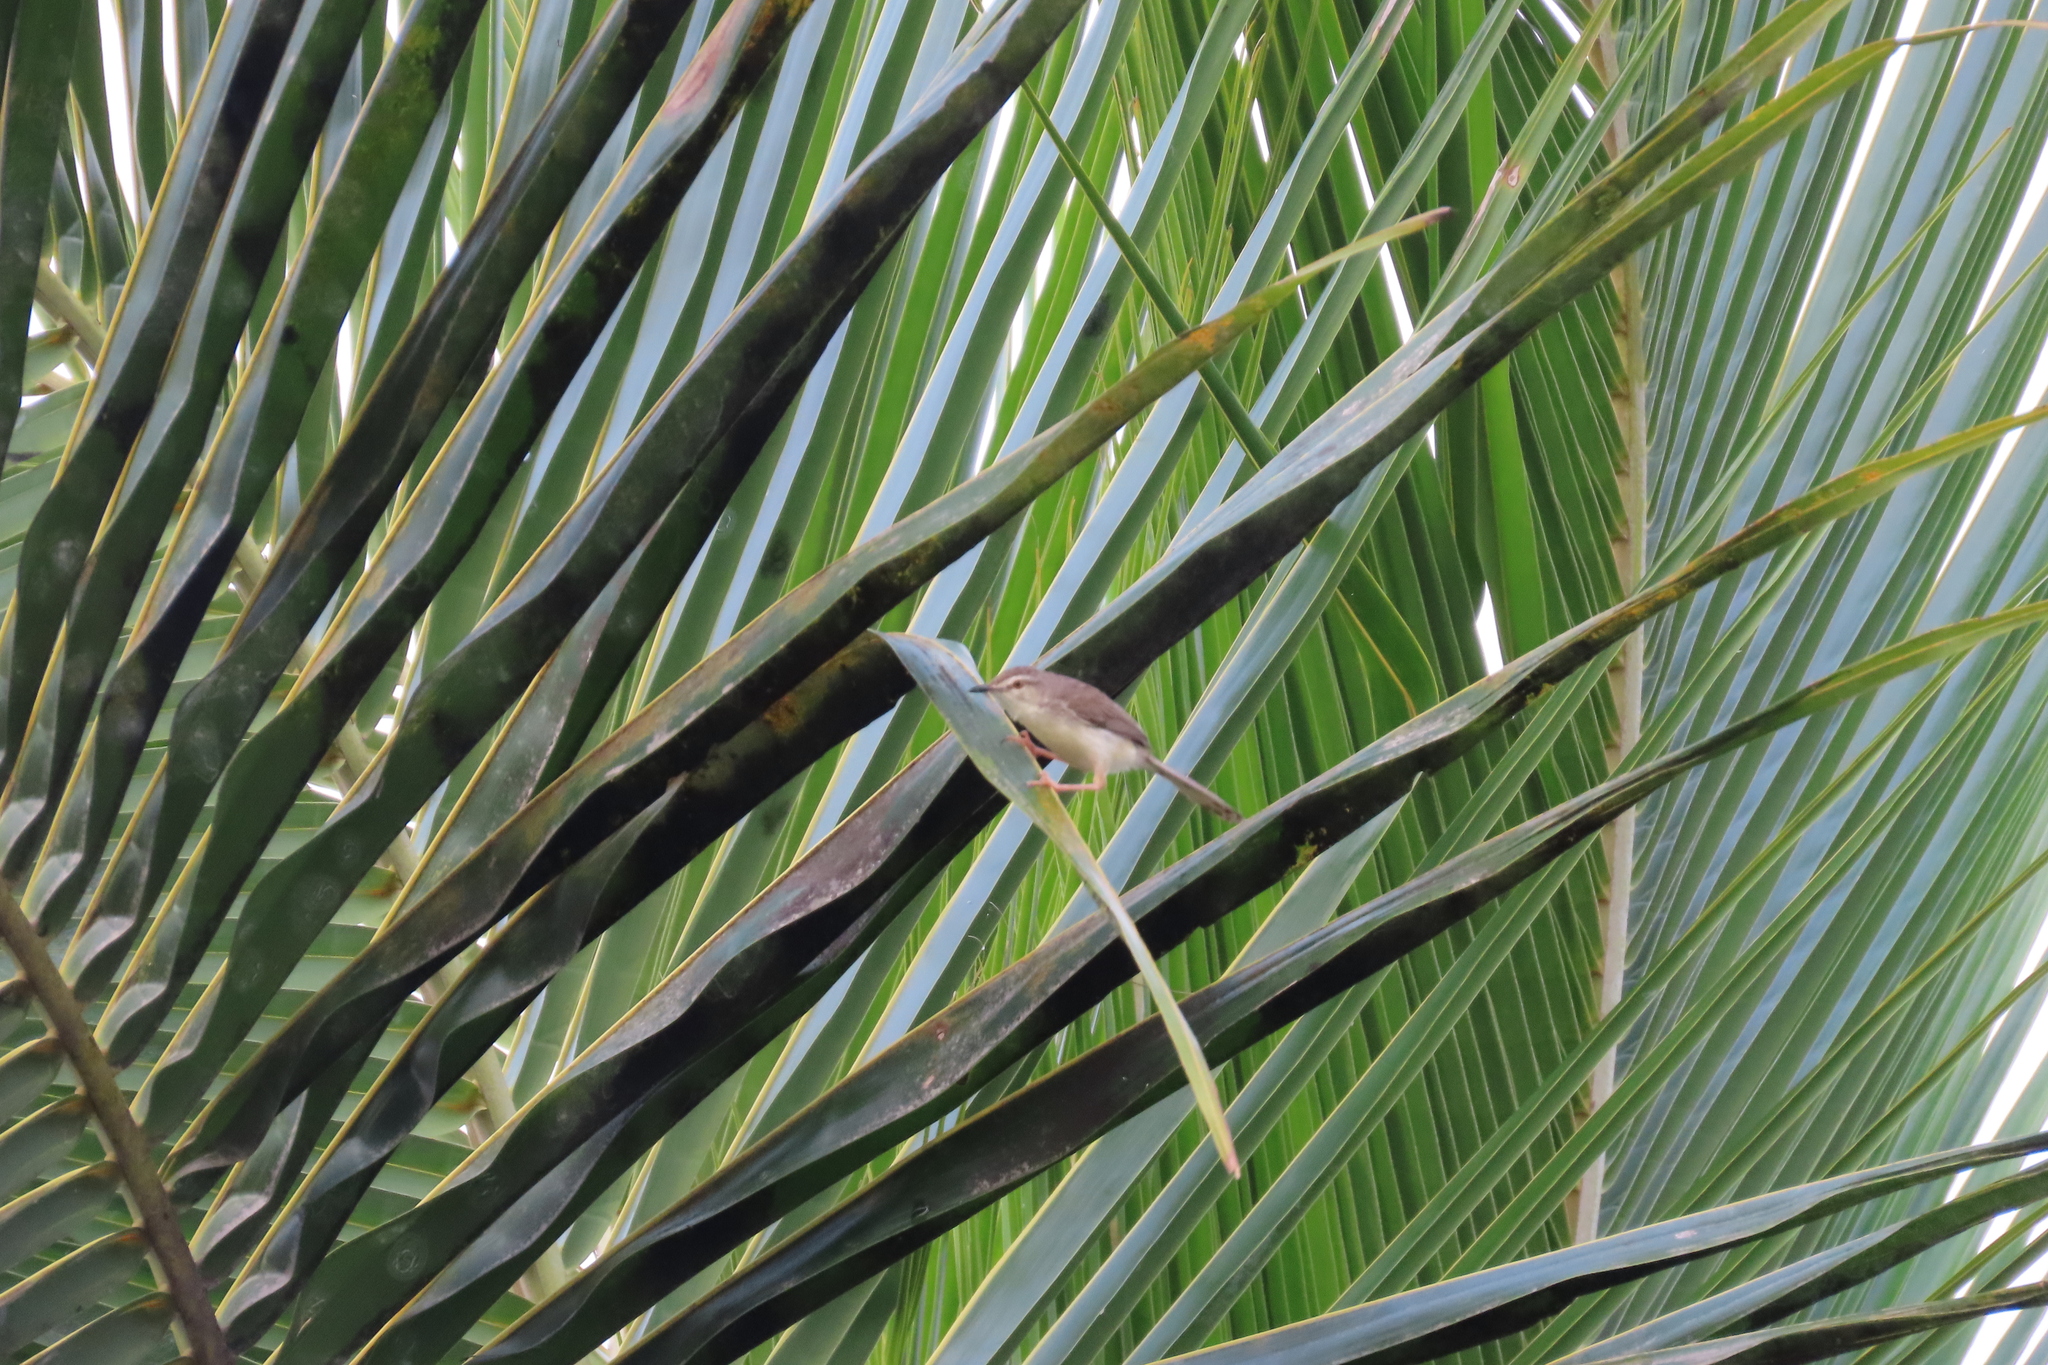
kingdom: Animalia
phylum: Chordata
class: Aves
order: Passeriformes
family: Cisticolidae
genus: Prinia
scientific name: Prinia inornata
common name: Plain prinia
